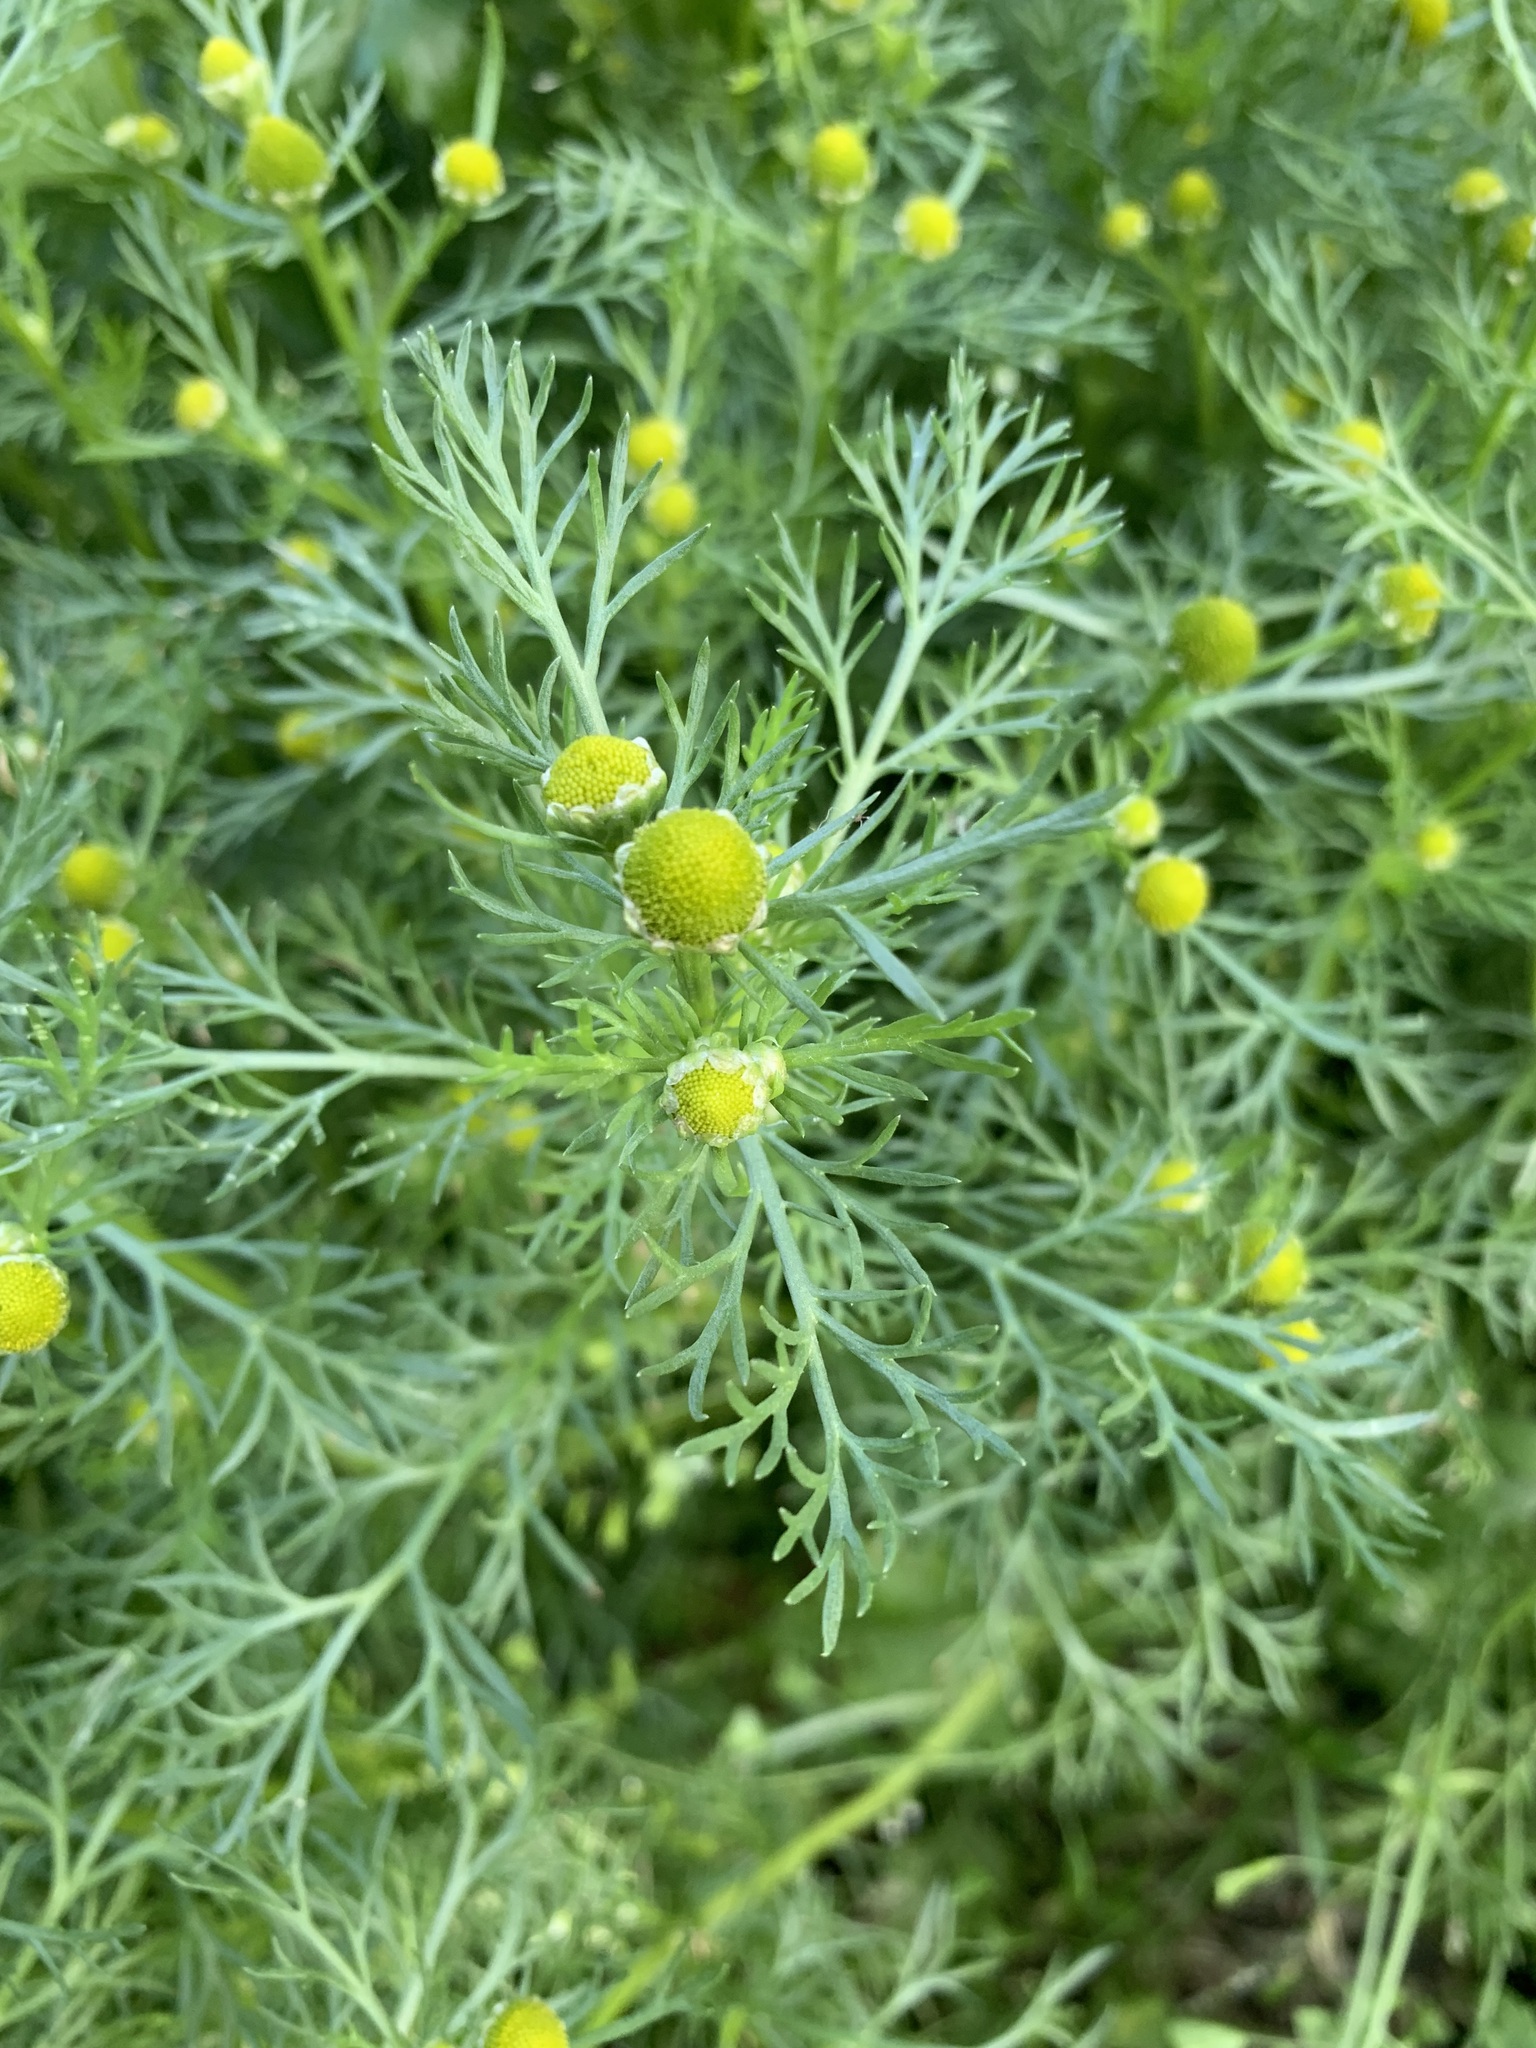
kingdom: Plantae
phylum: Tracheophyta
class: Magnoliopsida
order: Asterales
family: Asteraceae
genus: Matricaria
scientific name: Matricaria discoidea
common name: Disc mayweed
